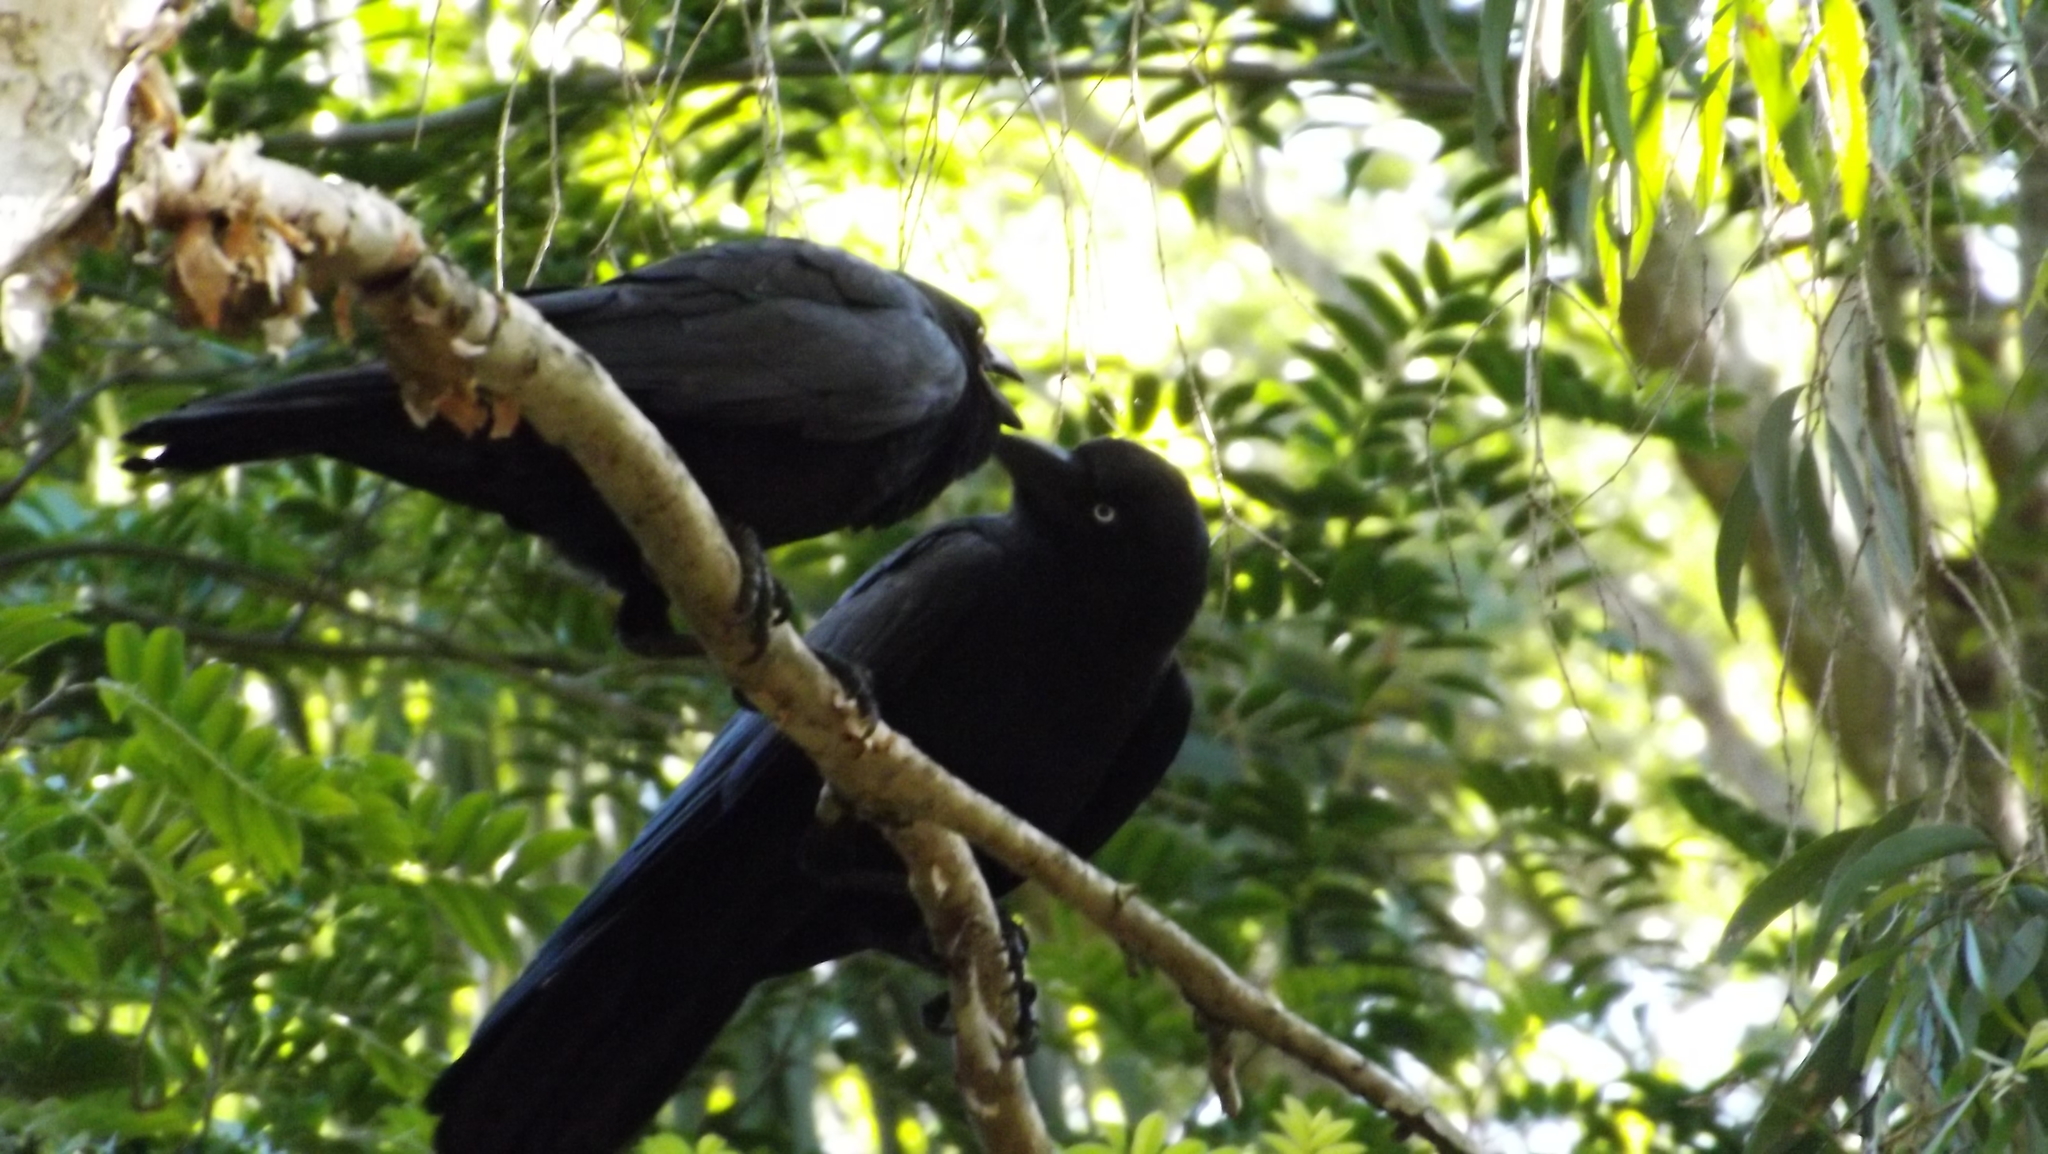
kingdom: Animalia
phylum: Chordata
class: Aves
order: Passeriformes
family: Corvidae
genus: Corvus
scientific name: Corvus orru
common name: Torresian crow
